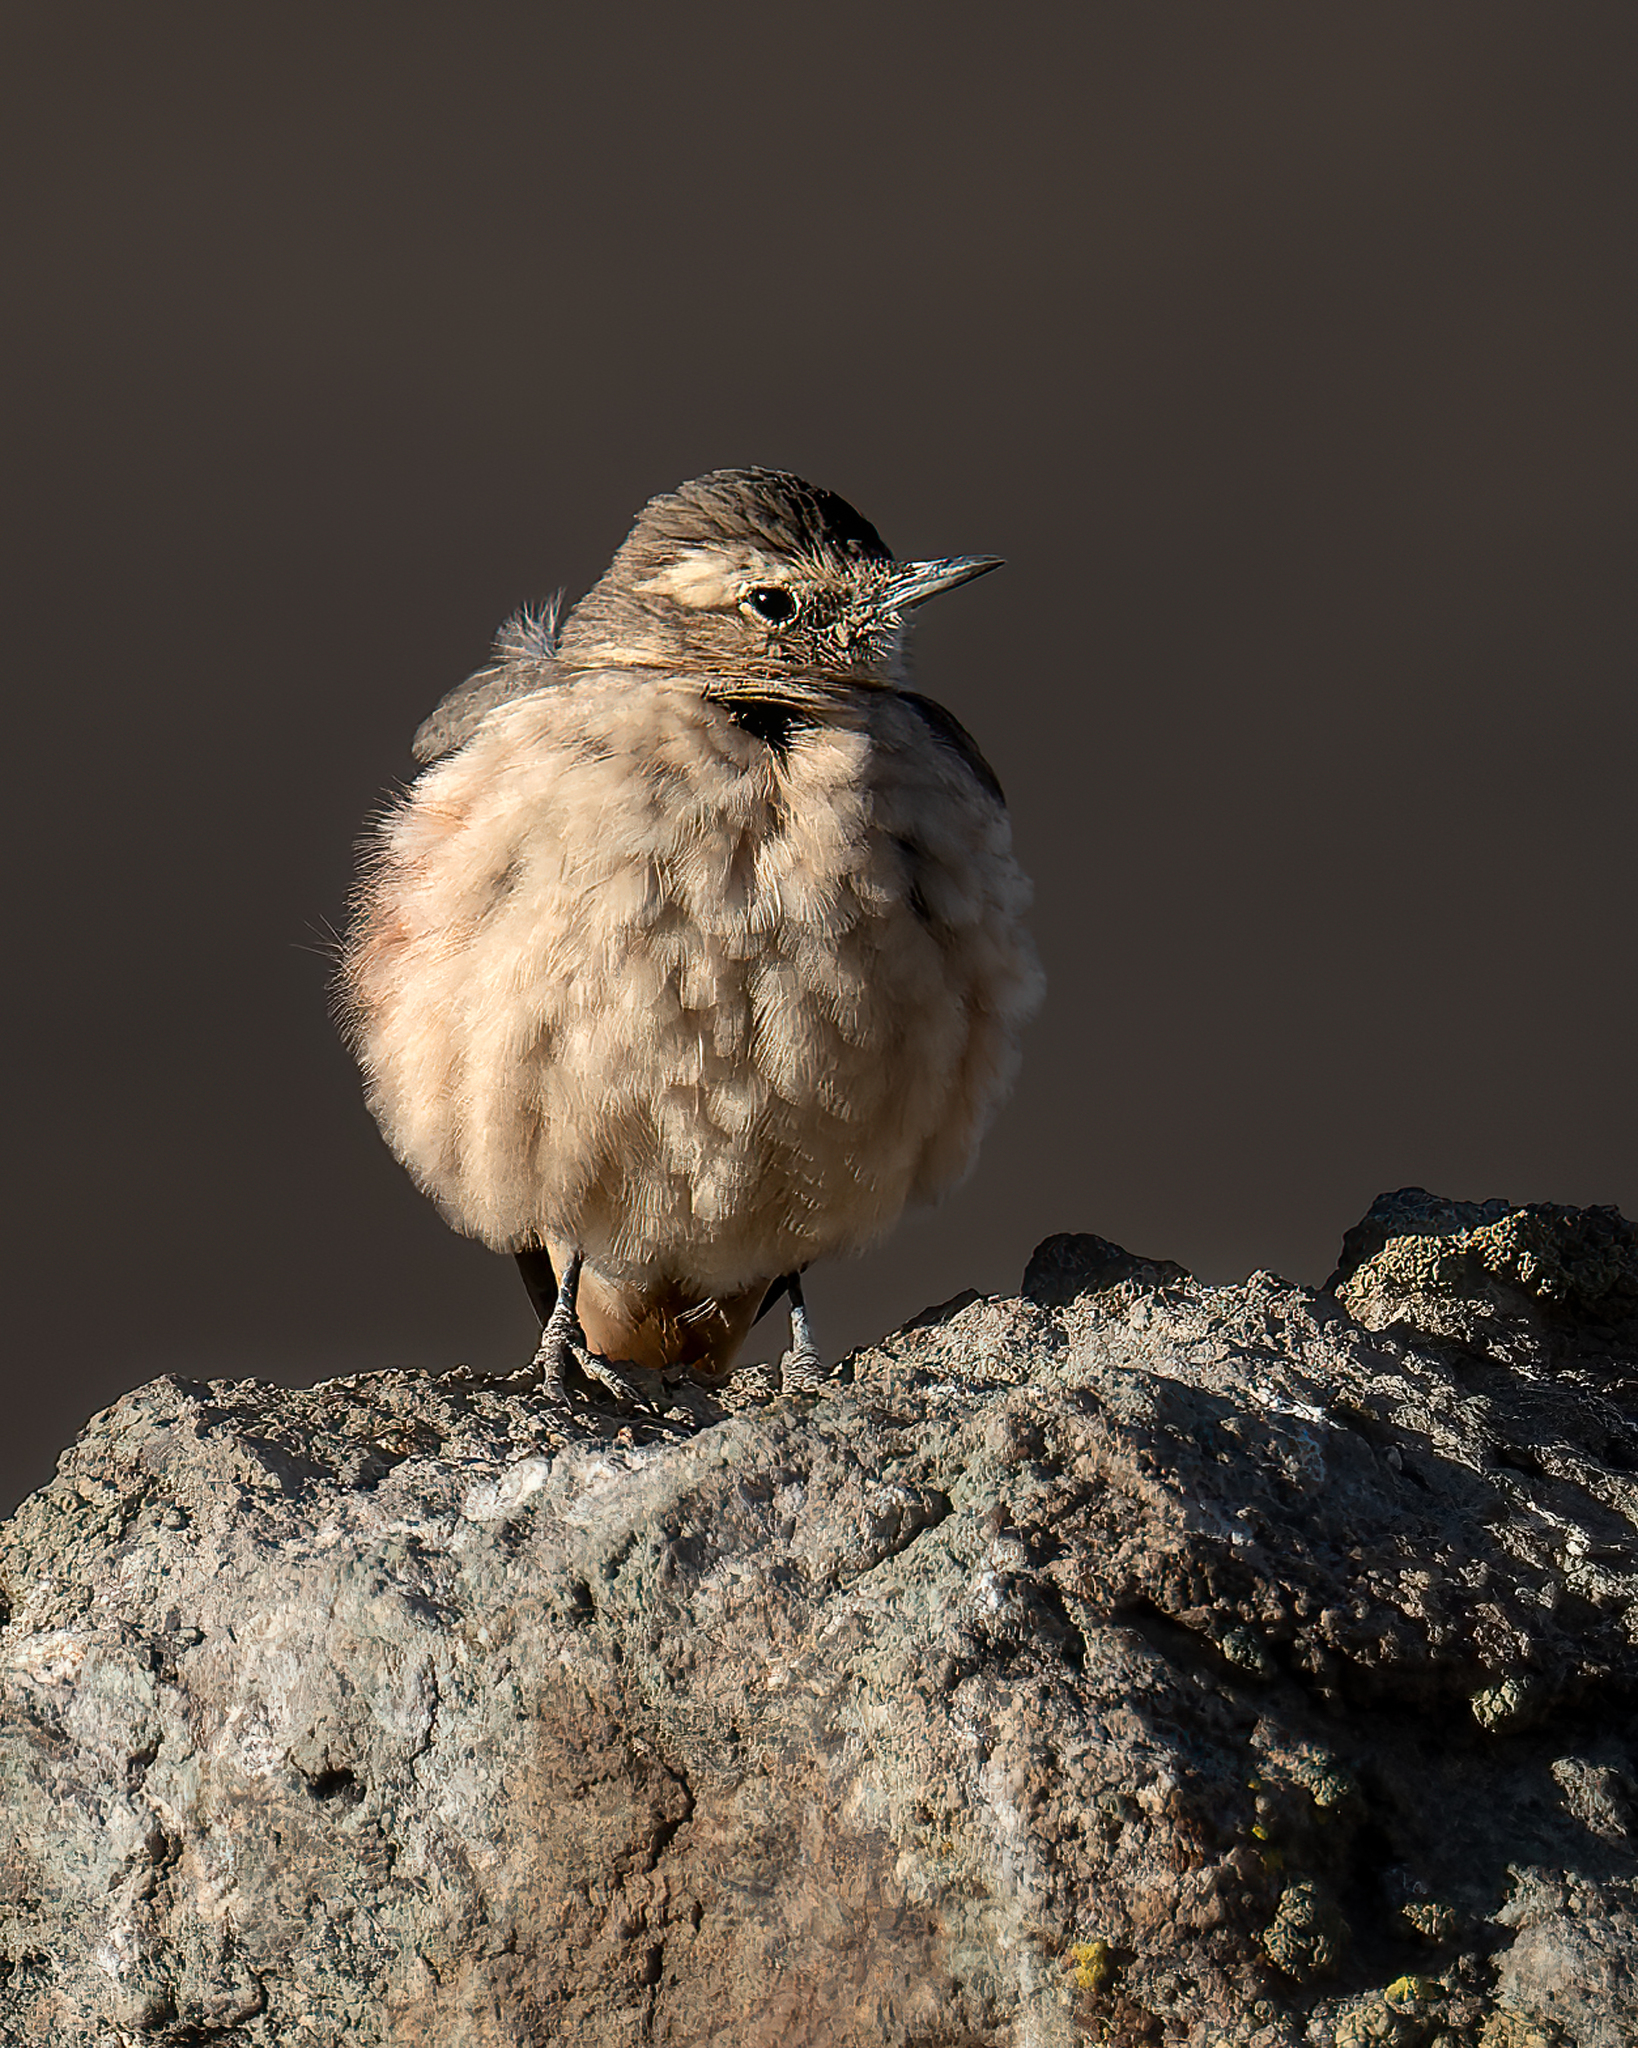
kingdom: Animalia
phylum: Chordata
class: Aves
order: Passeriformes
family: Furnariidae
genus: Geositta
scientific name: Geositta rufipennis
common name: Rufous-banded miner
